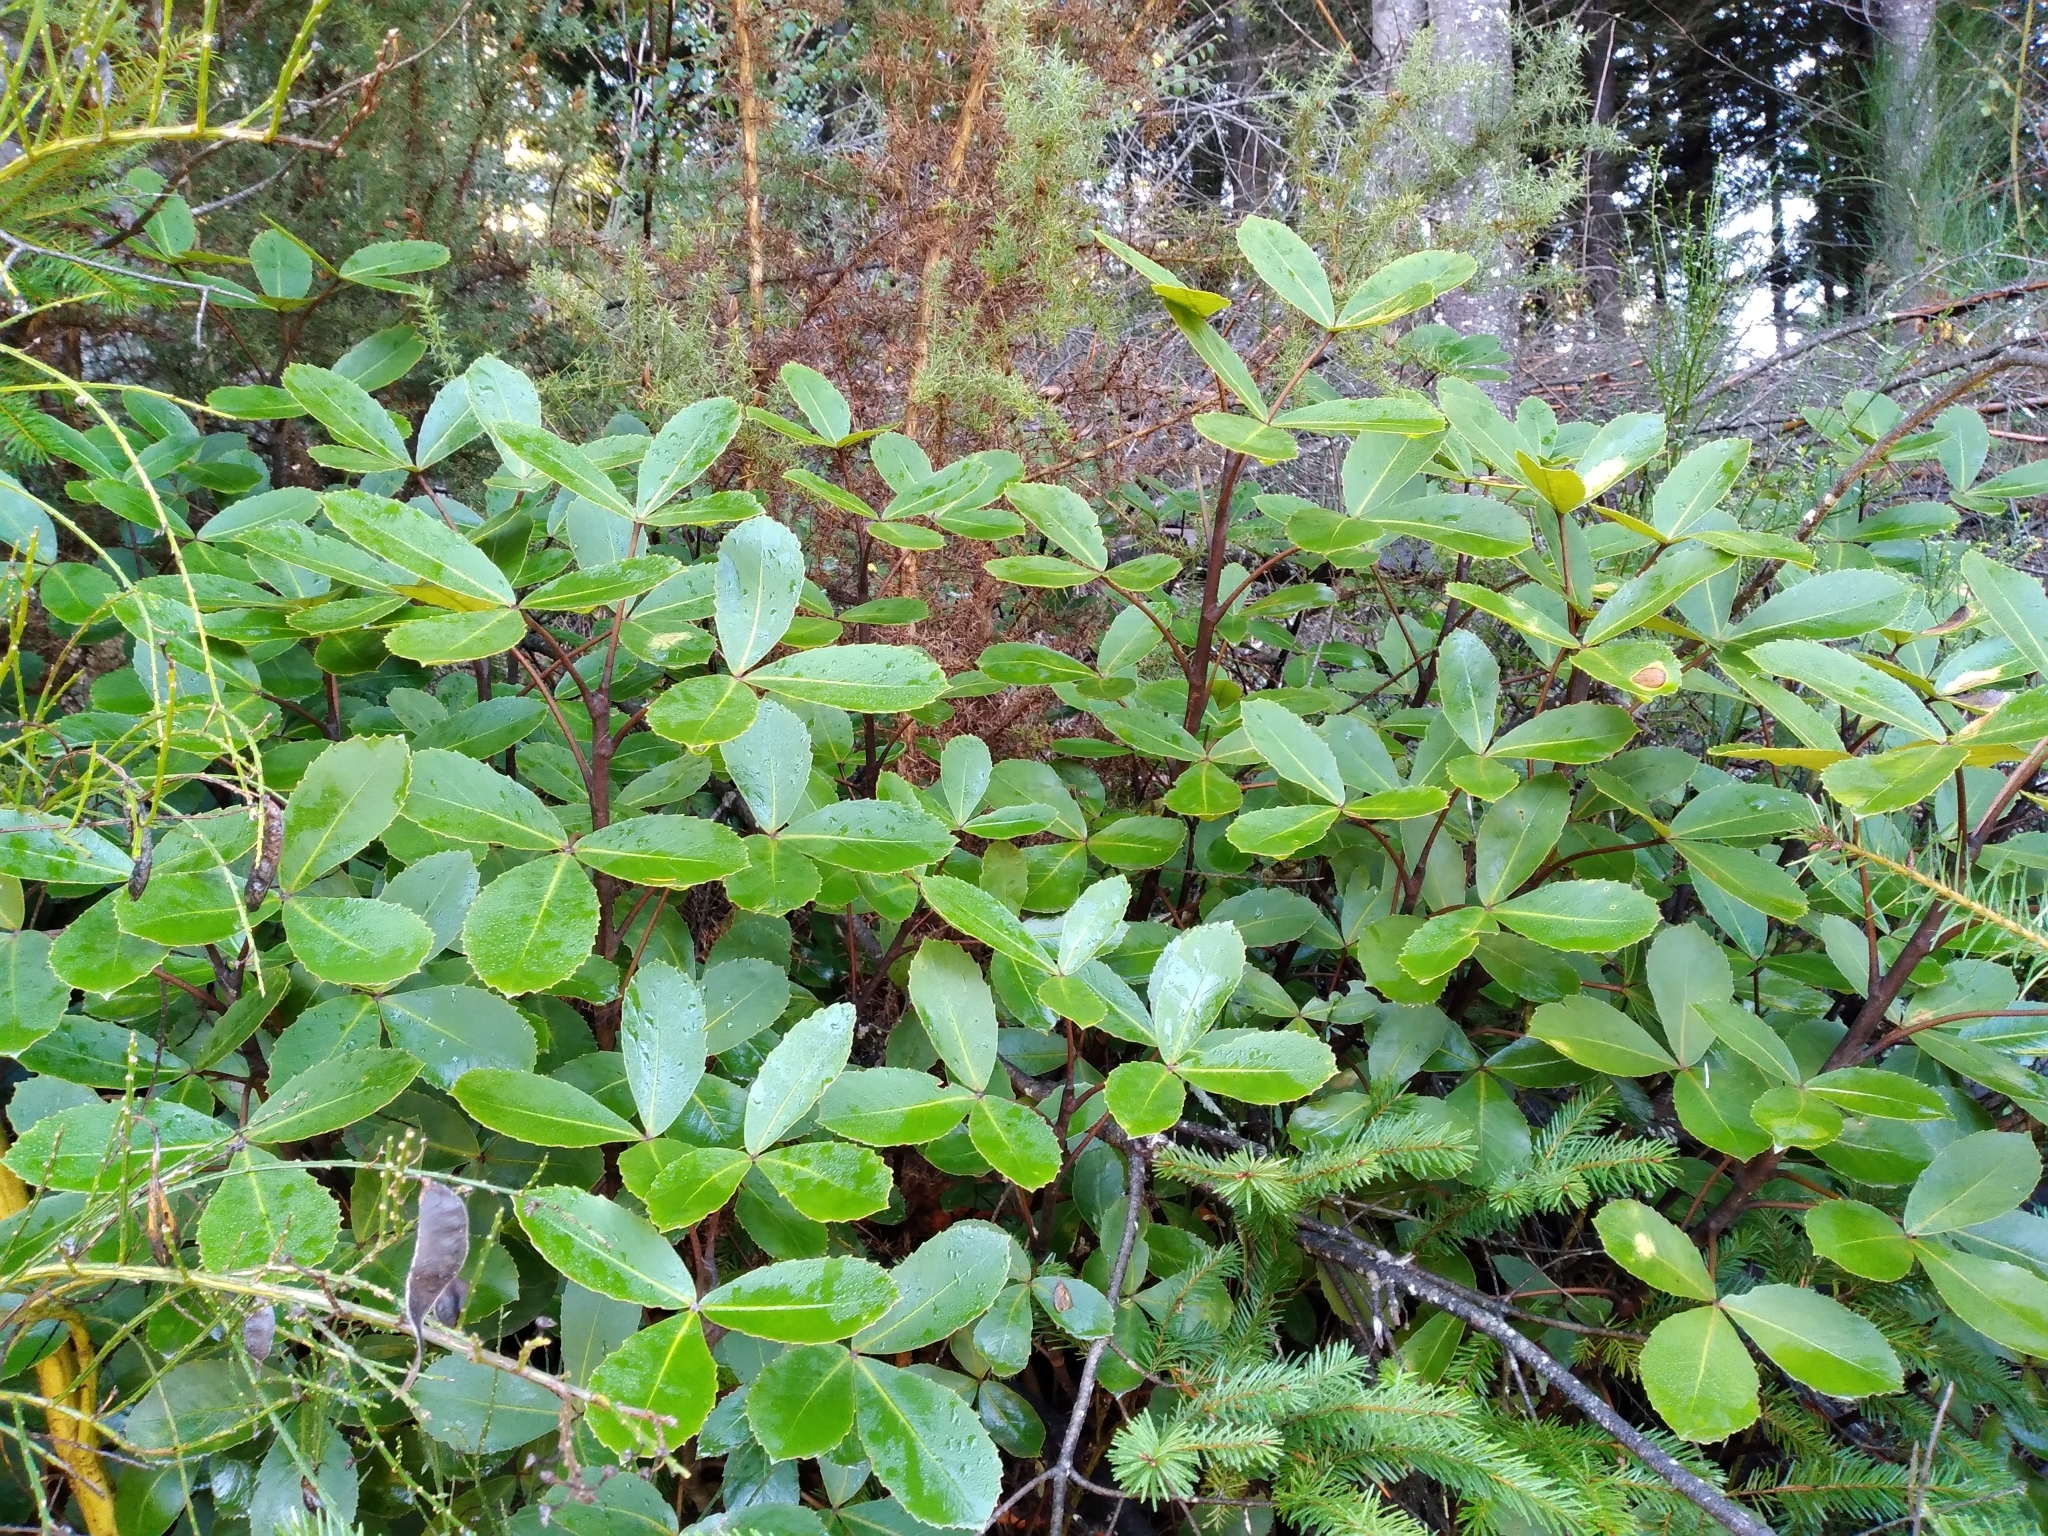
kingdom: Plantae
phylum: Tracheophyta
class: Magnoliopsida
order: Apiales
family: Araliaceae
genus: Neopanax
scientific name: Neopanax colensoi
